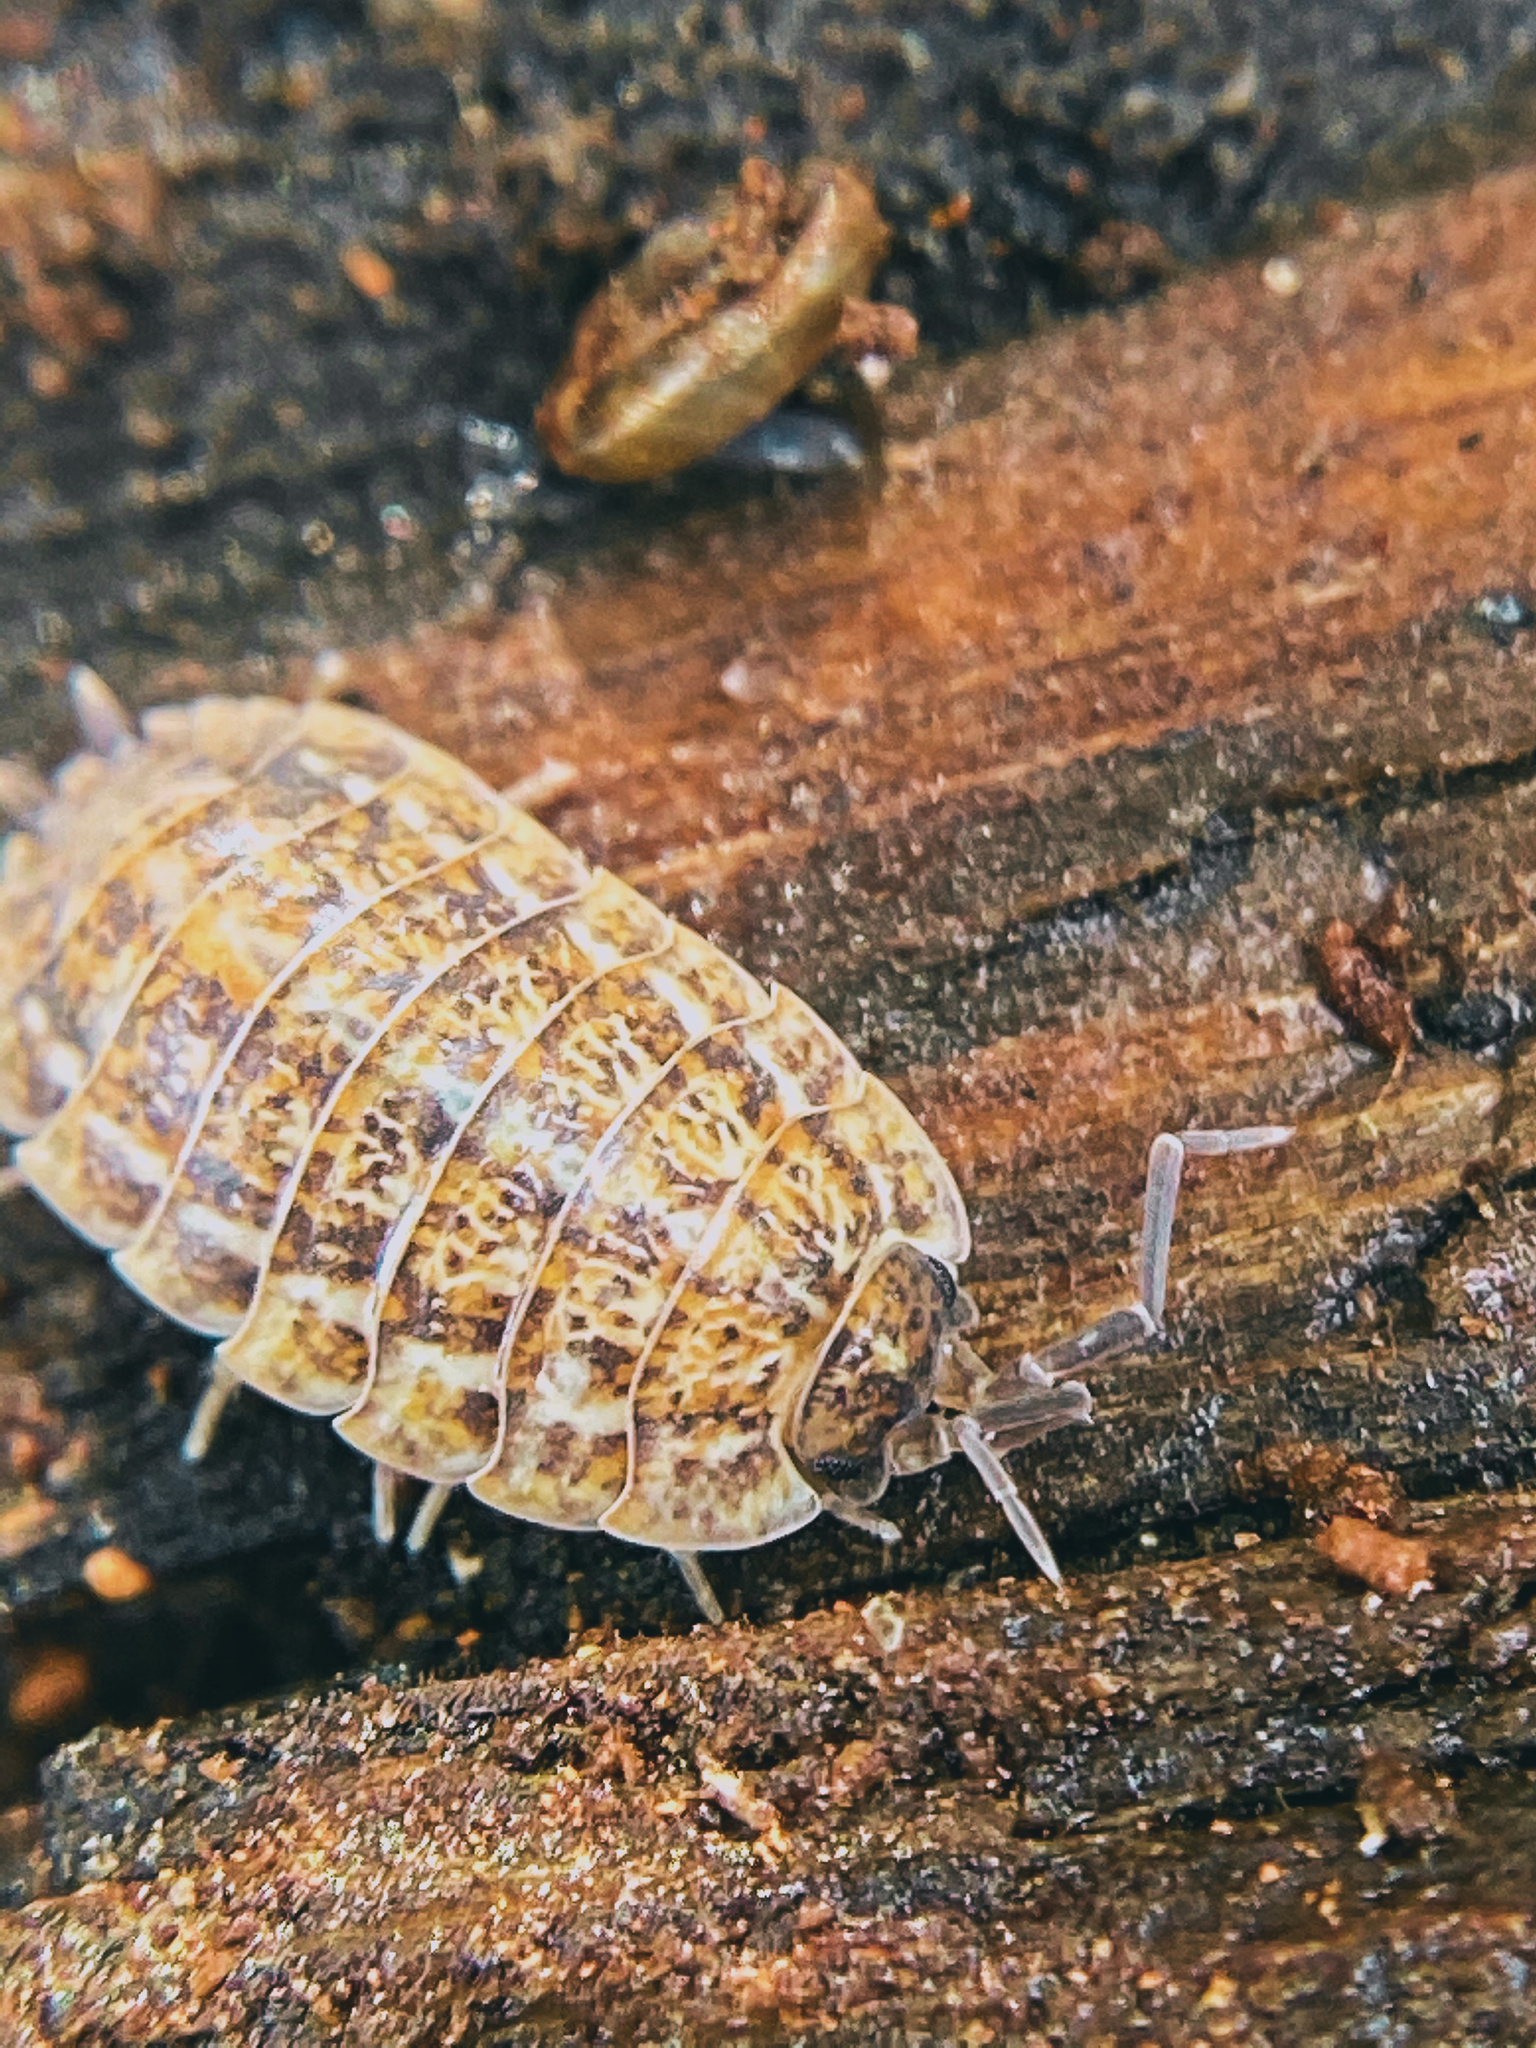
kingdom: Animalia
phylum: Arthropoda
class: Malacostraca
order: Isopoda
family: Trachelipodidae
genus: Trachelipus
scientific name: Trachelipus rathkii
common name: Isopod
